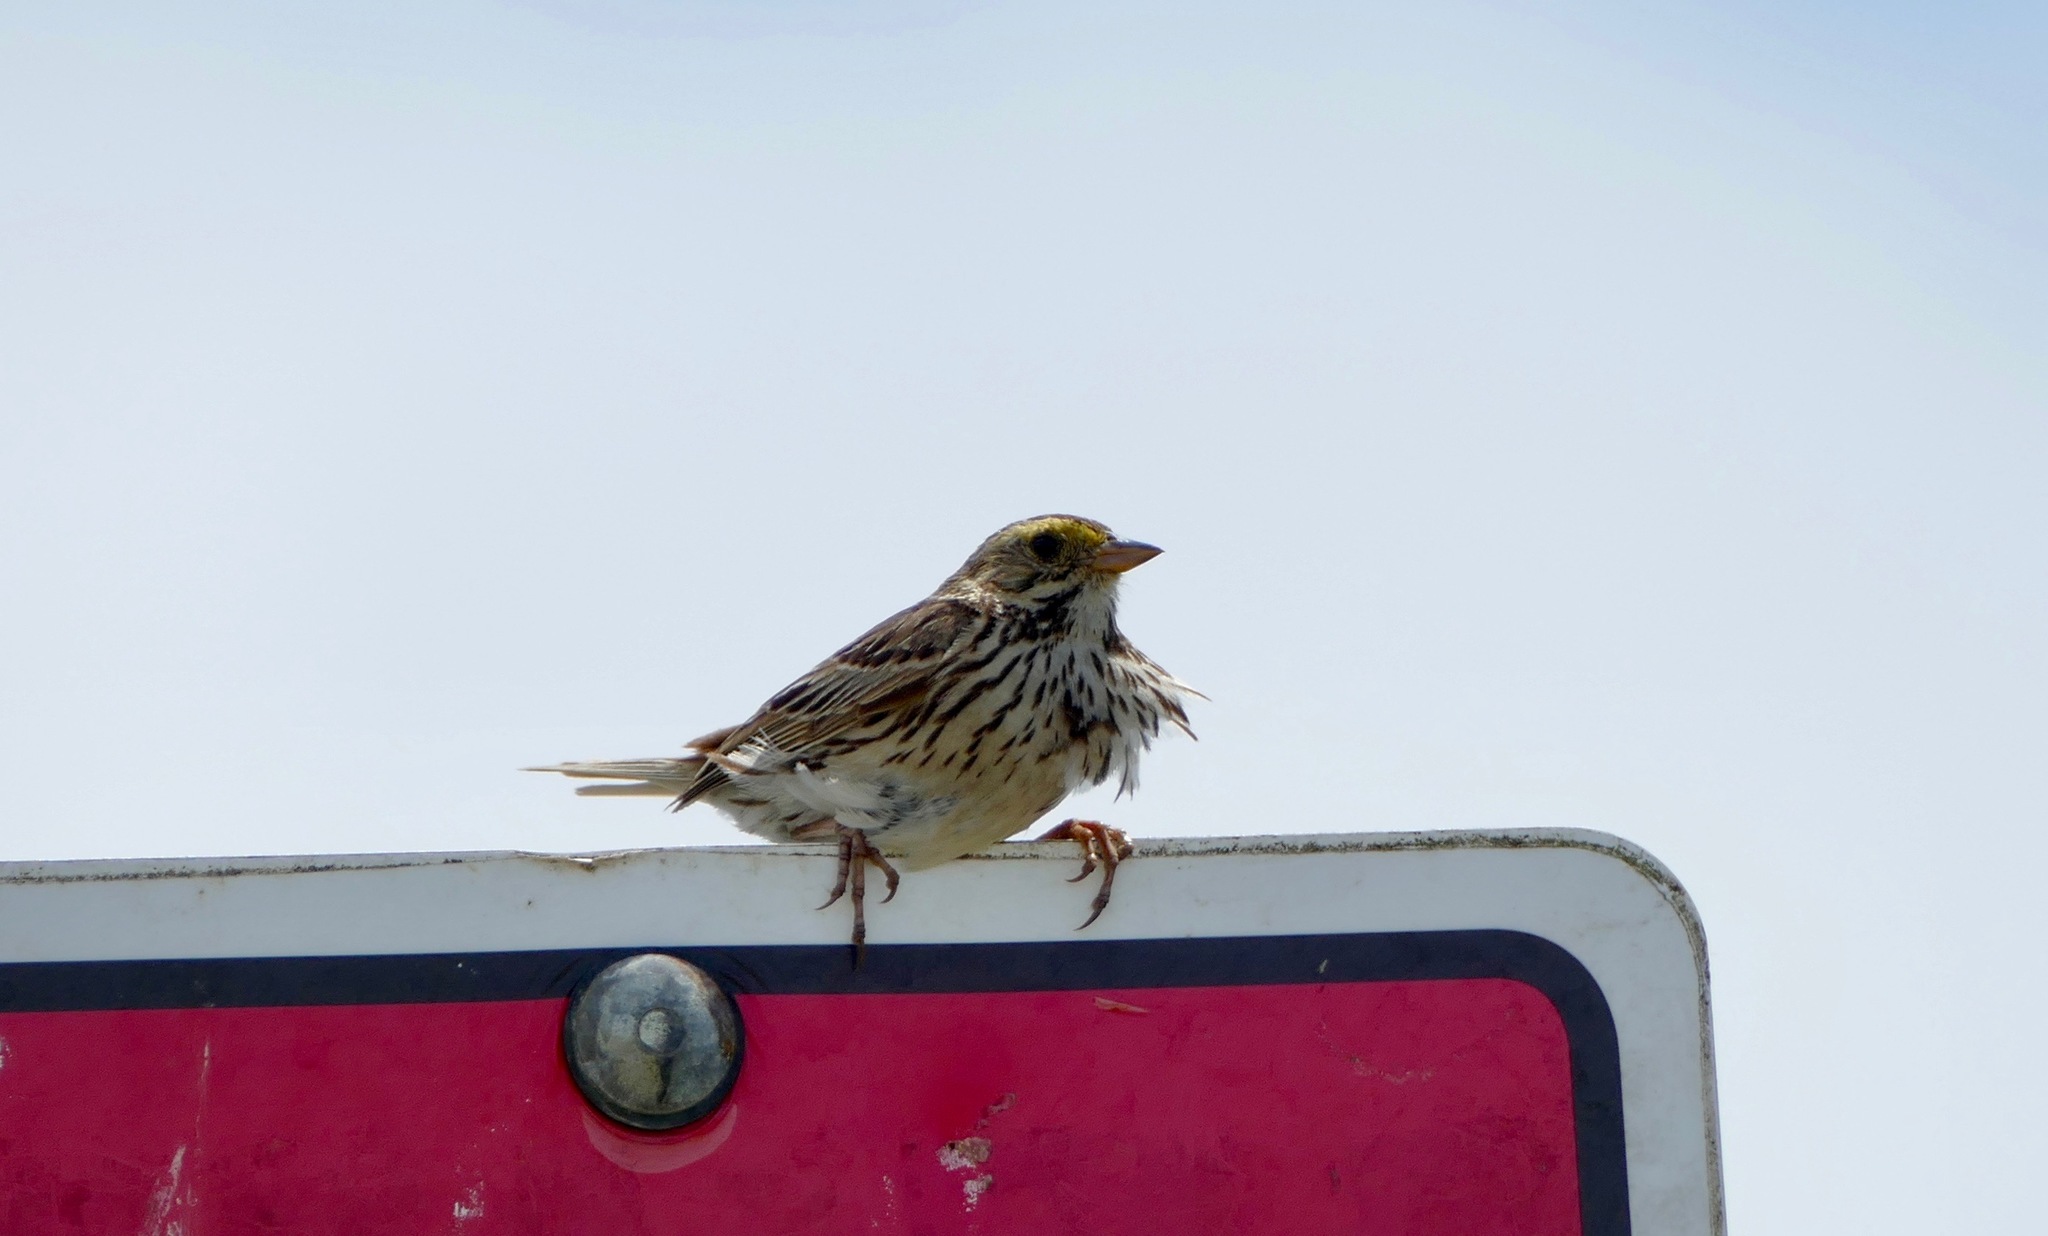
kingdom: Animalia
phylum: Chordata
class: Aves
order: Passeriformes
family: Passerellidae
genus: Passerculus
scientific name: Passerculus sandwichensis
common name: Savannah sparrow
